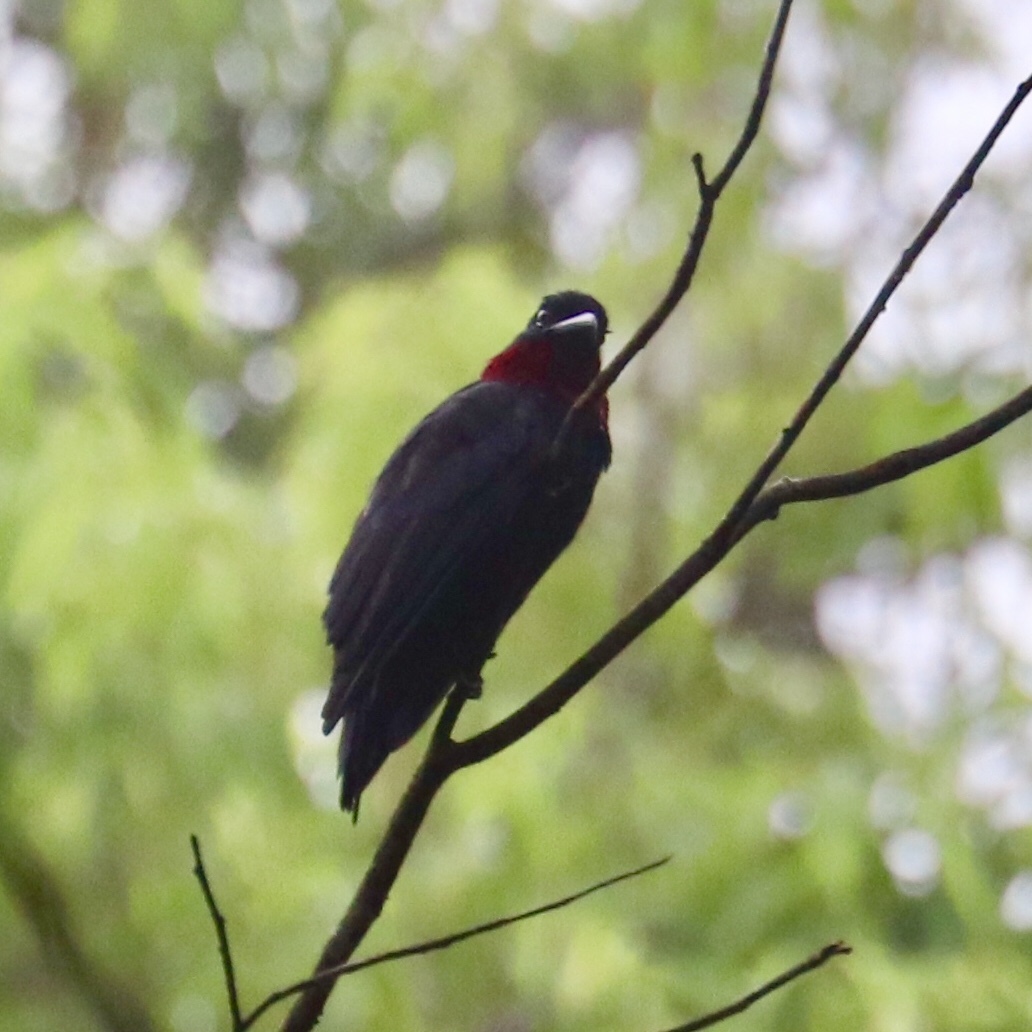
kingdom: Animalia
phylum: Chordata
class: Aves
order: Passeriformes
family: Cotingidae
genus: Querula
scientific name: Querula purpurata
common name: Purple-throated fruitcrow
